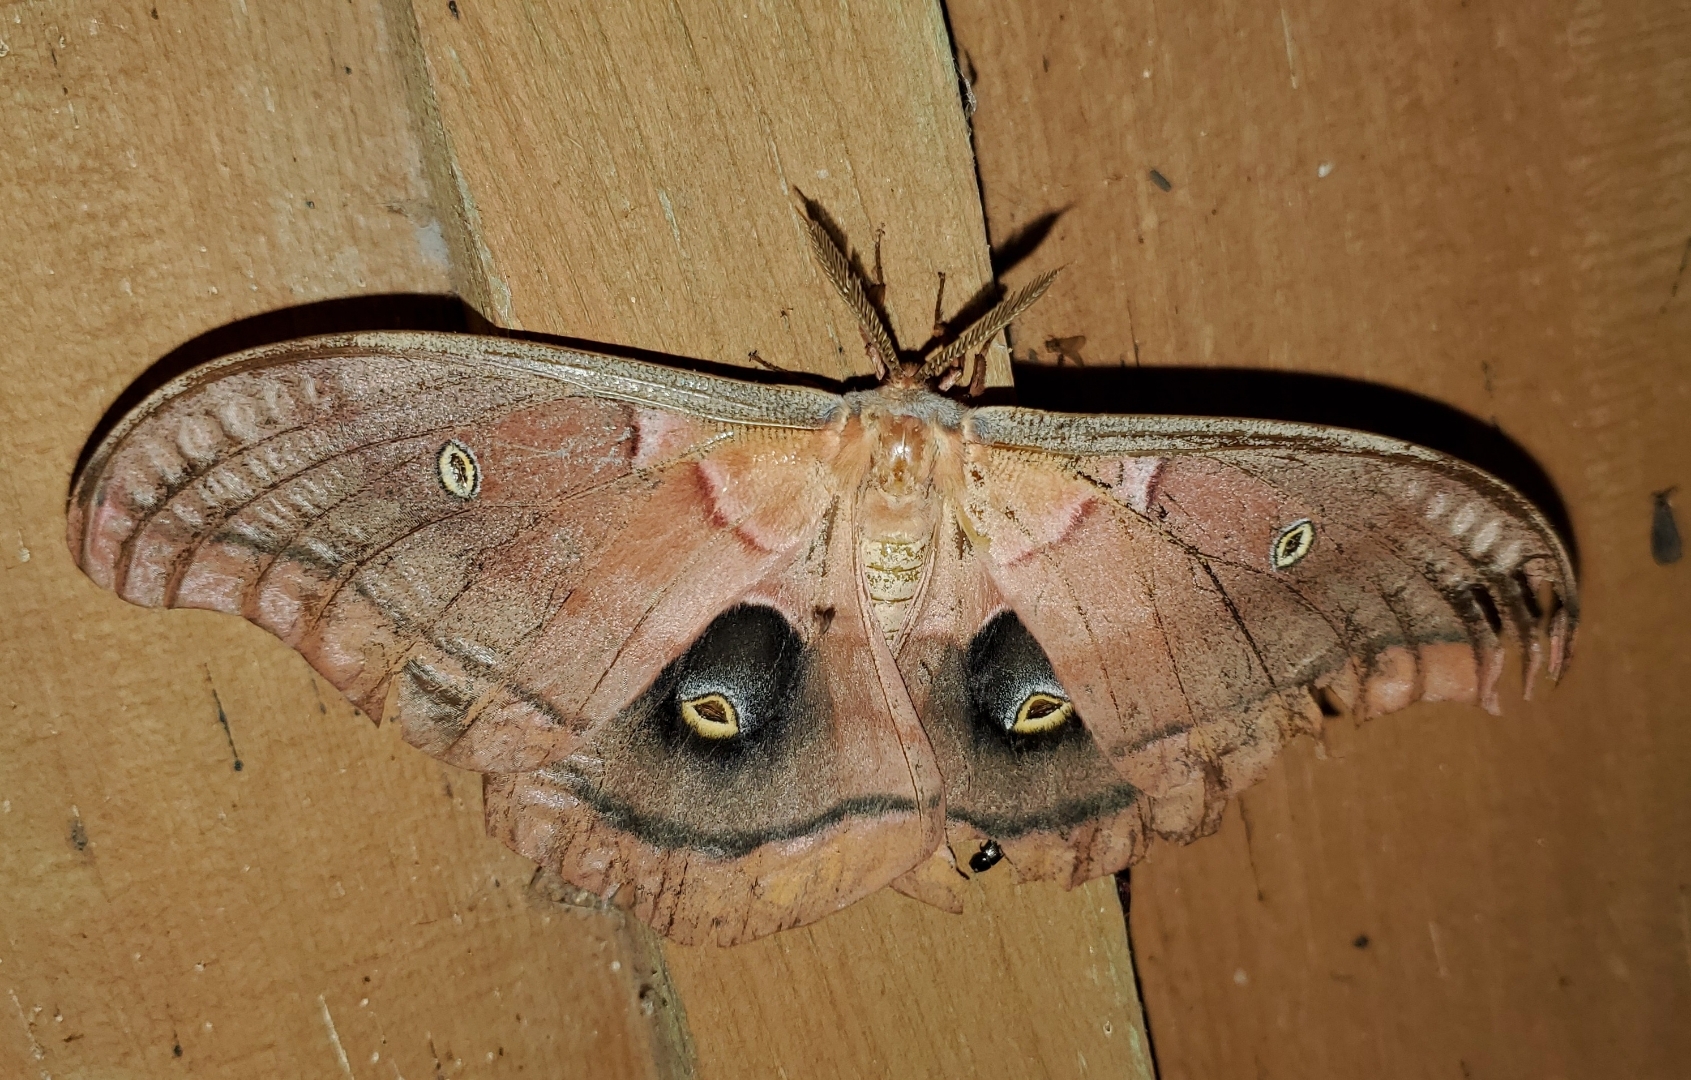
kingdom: Animalia
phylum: Arthropoda
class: Insecta
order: Lepidoptera
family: Saturniidae
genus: Antheraea
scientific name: Antheraea polyphemus
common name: Polyphemus moth
